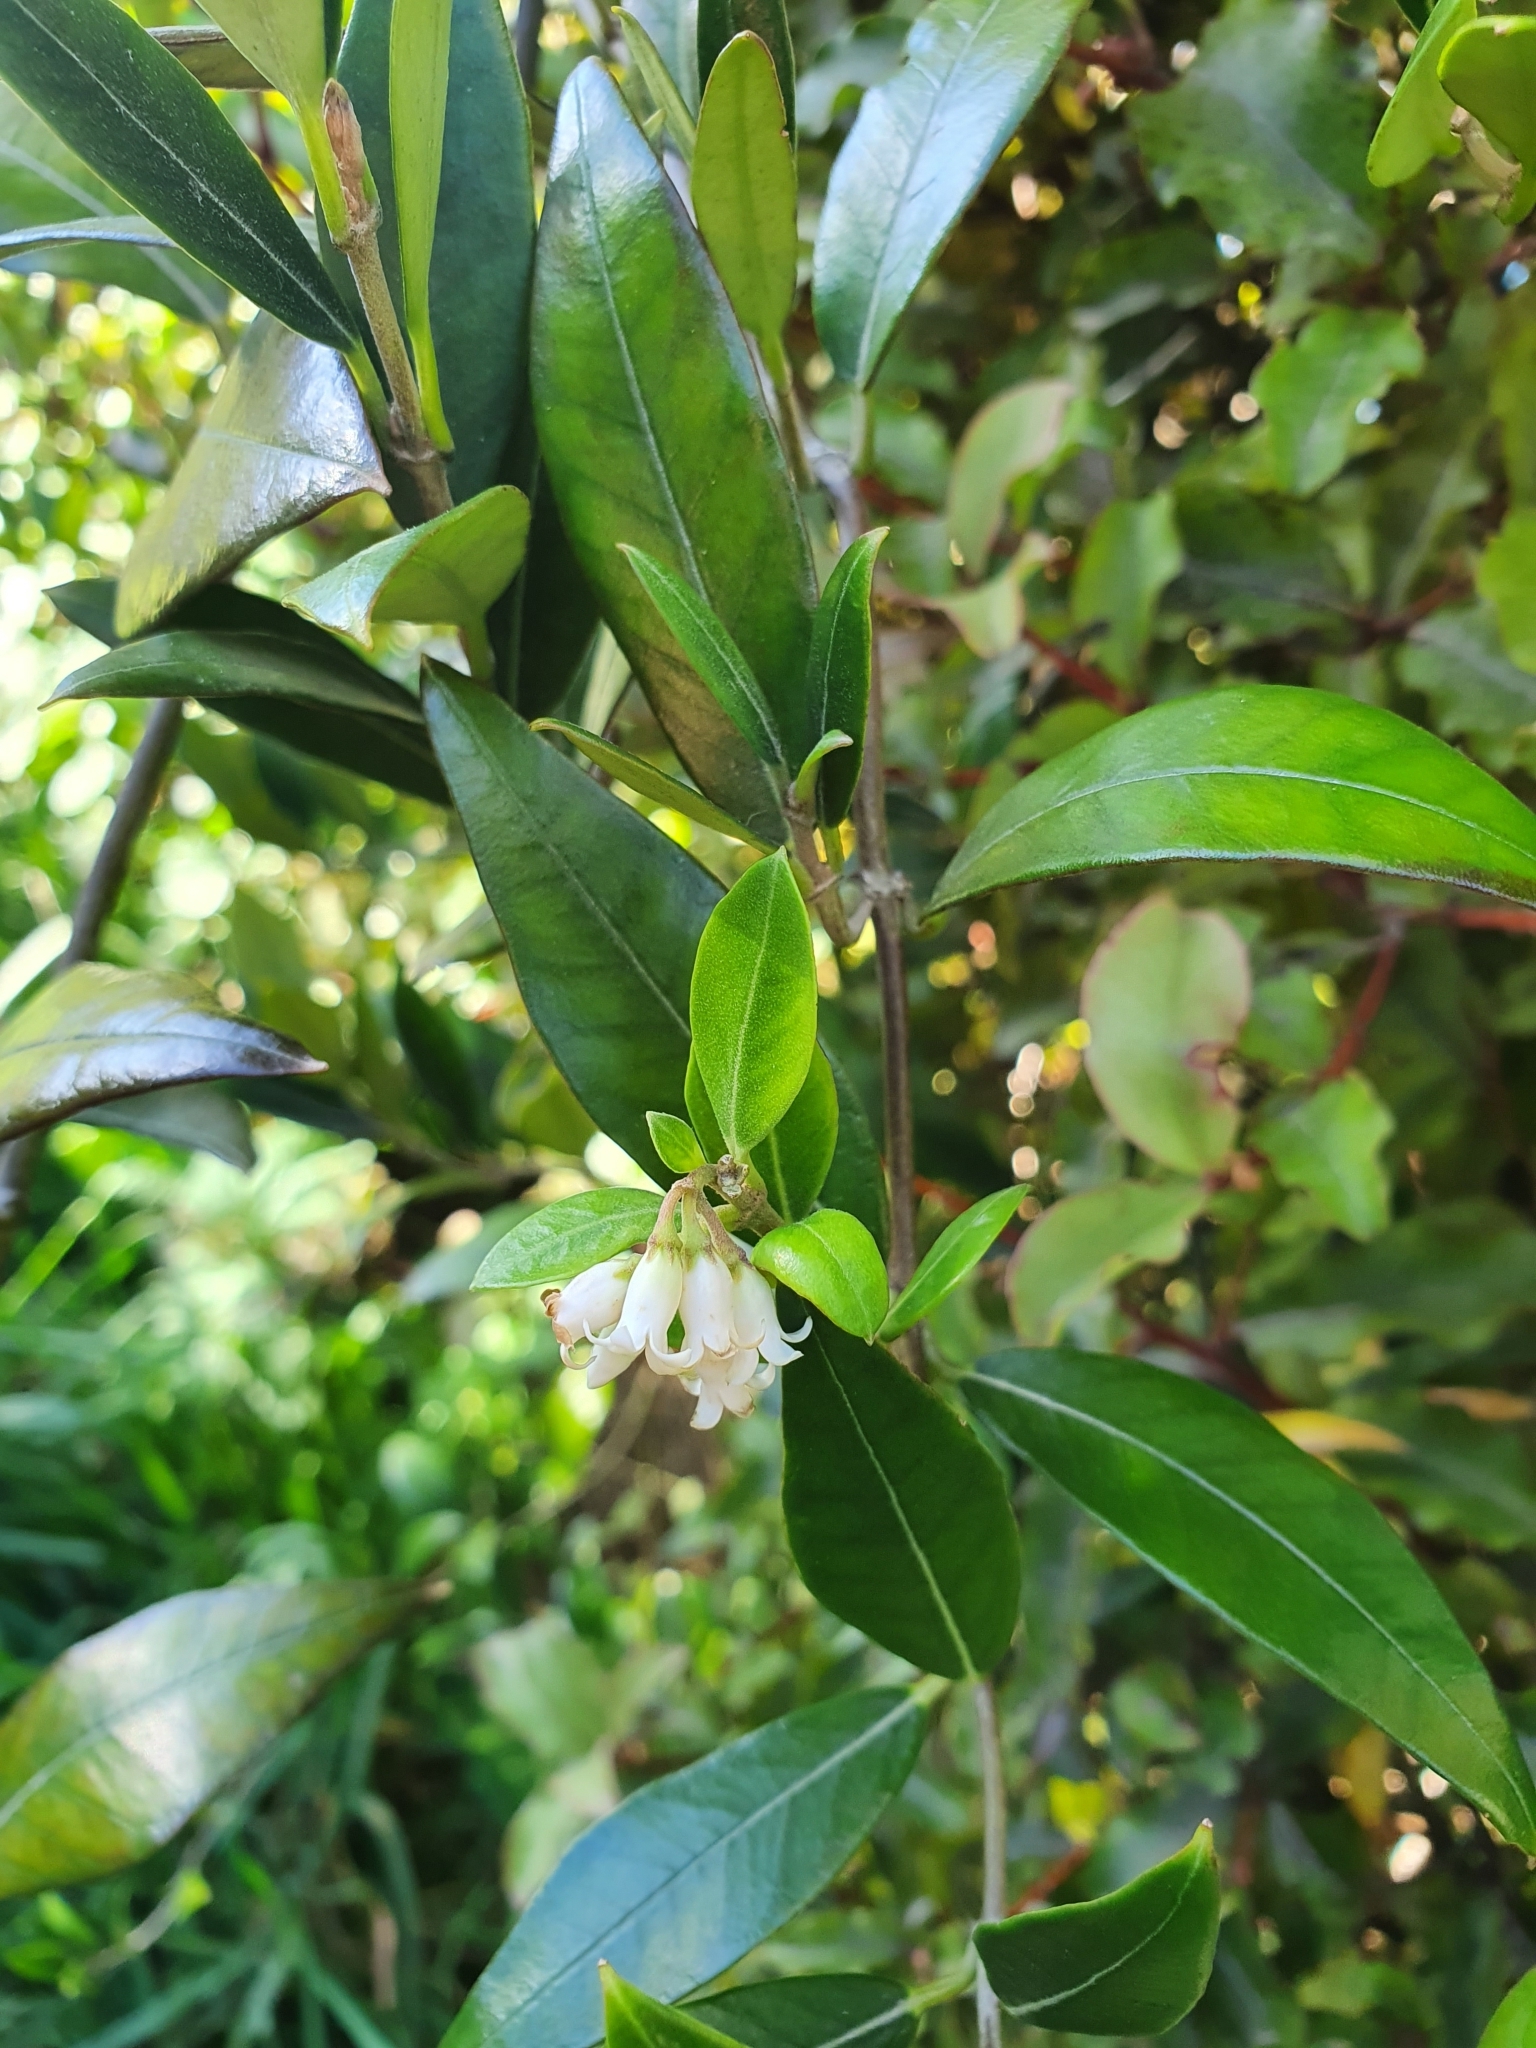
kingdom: Plantae
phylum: Tracheophyta
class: Magnoliopsida
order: Gentianales
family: Apocynaceae
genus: Parsonsia
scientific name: Parsonsia heterophylla
